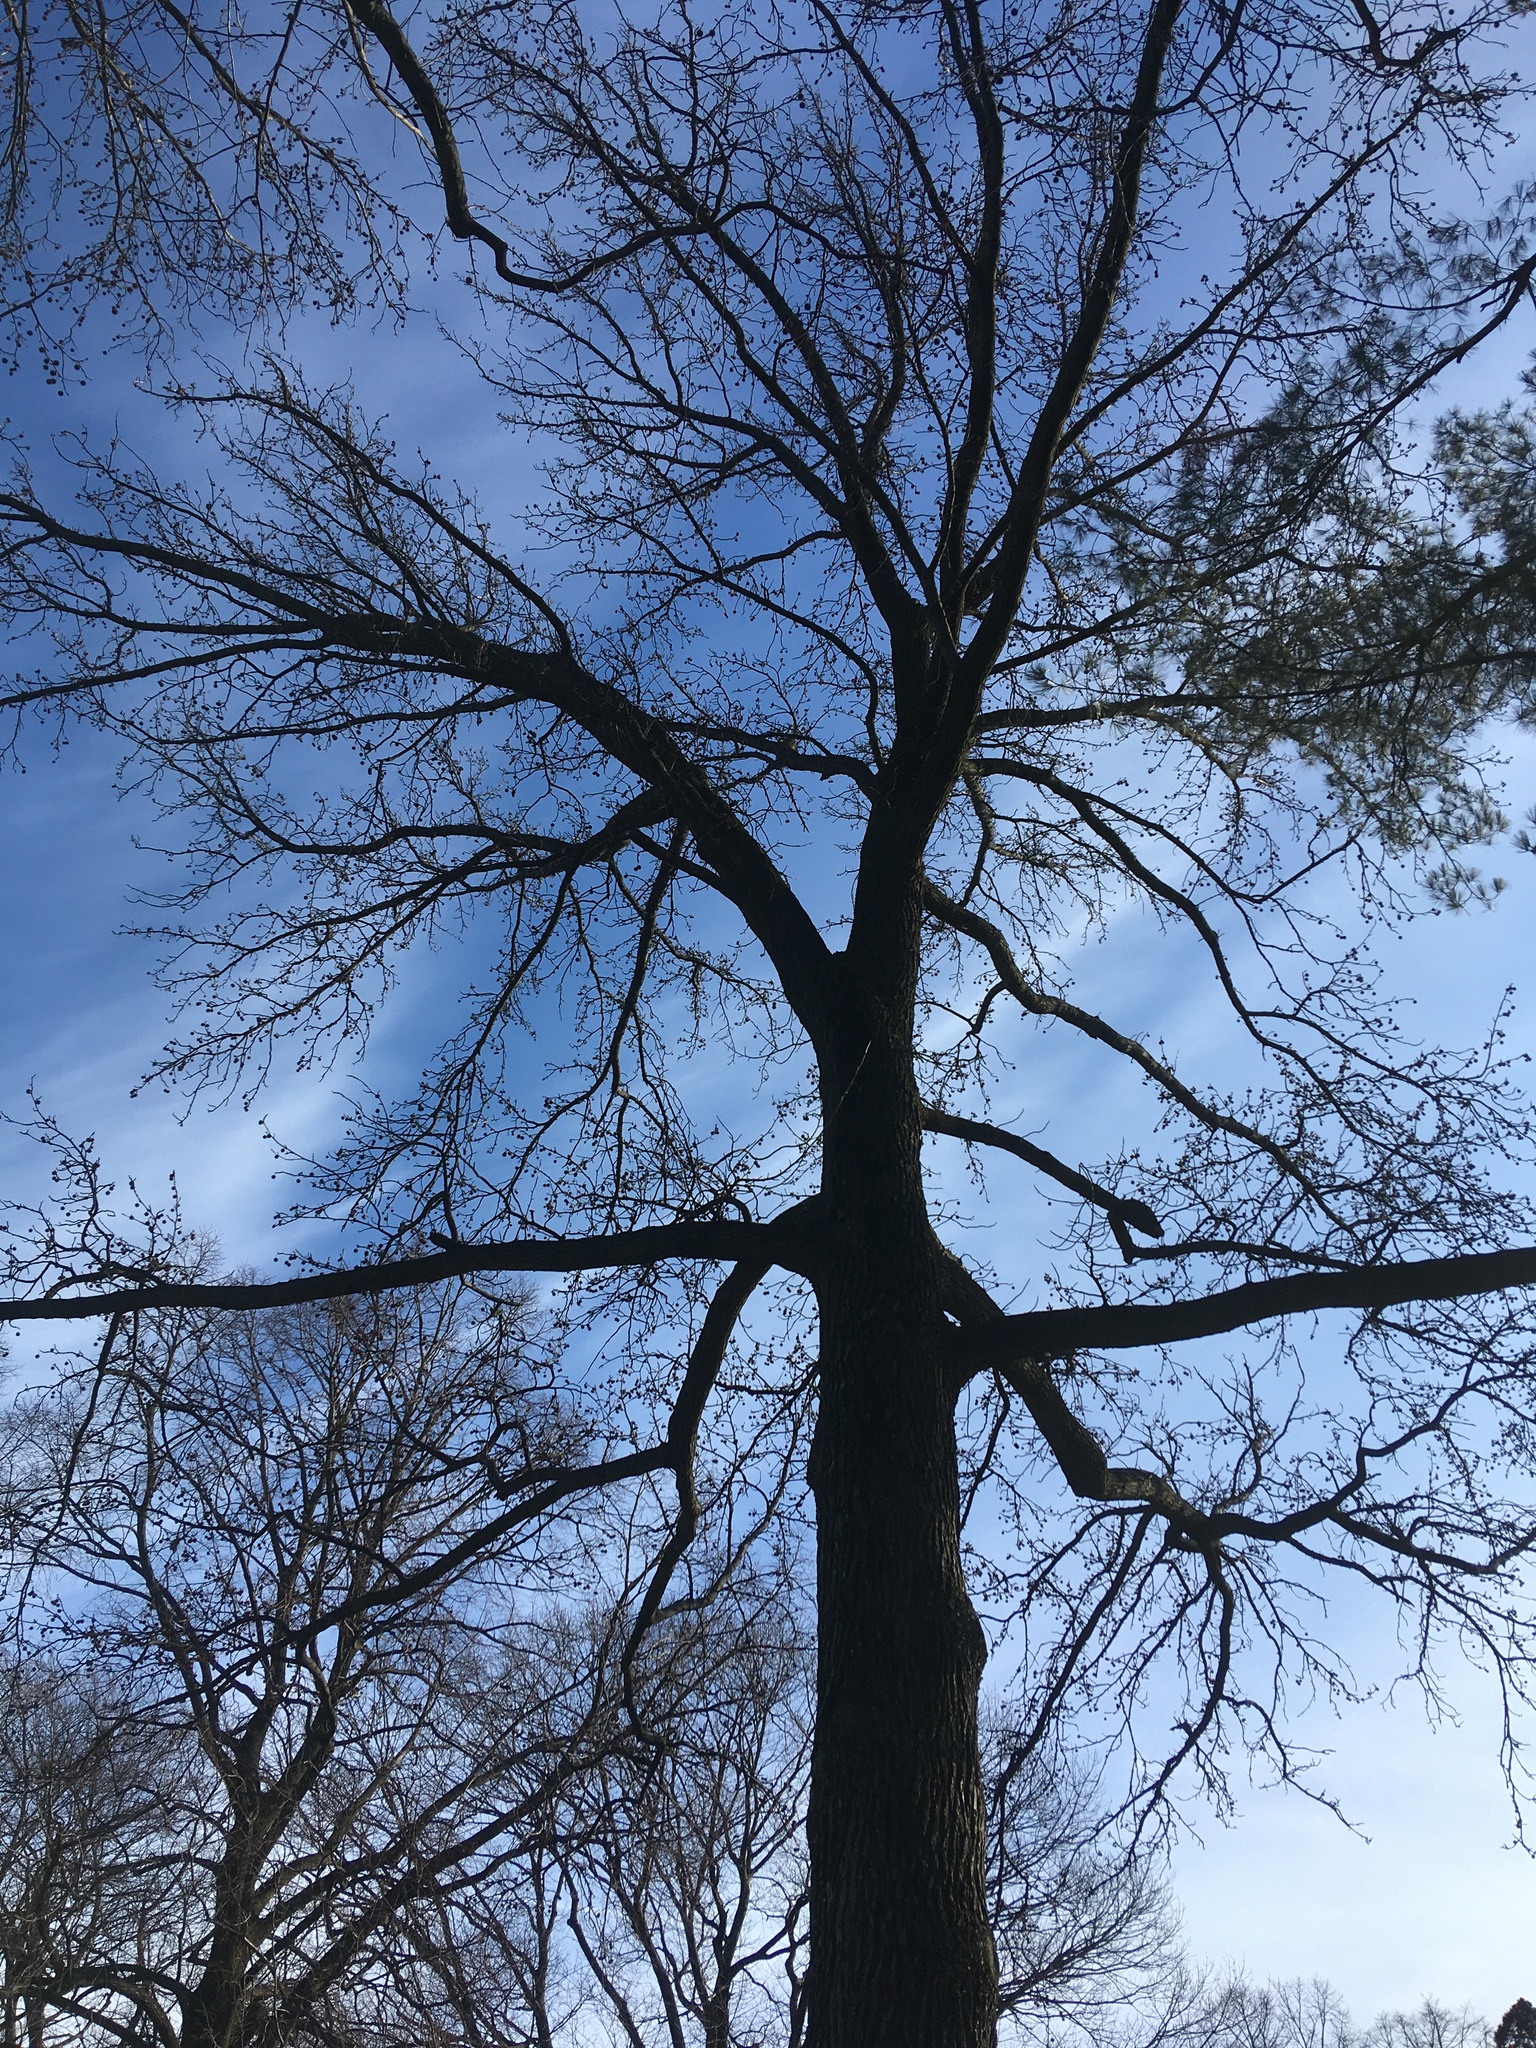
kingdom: Plantae
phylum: Tracheophyta
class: Magnoliopsida
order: Saxifragales
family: Altingiaceae
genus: Liquidambar
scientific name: Liquidambar styraciflua
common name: Sweet gum
